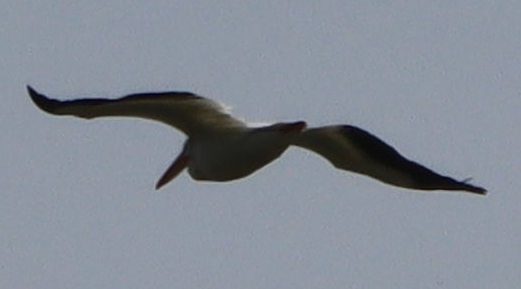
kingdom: Animalia
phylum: Chordata
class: Aves
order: Pelecaniformes
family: Pelecanidae
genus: Pelecanus
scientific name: Pelecanus erythrorhynchos
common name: American white pelican
